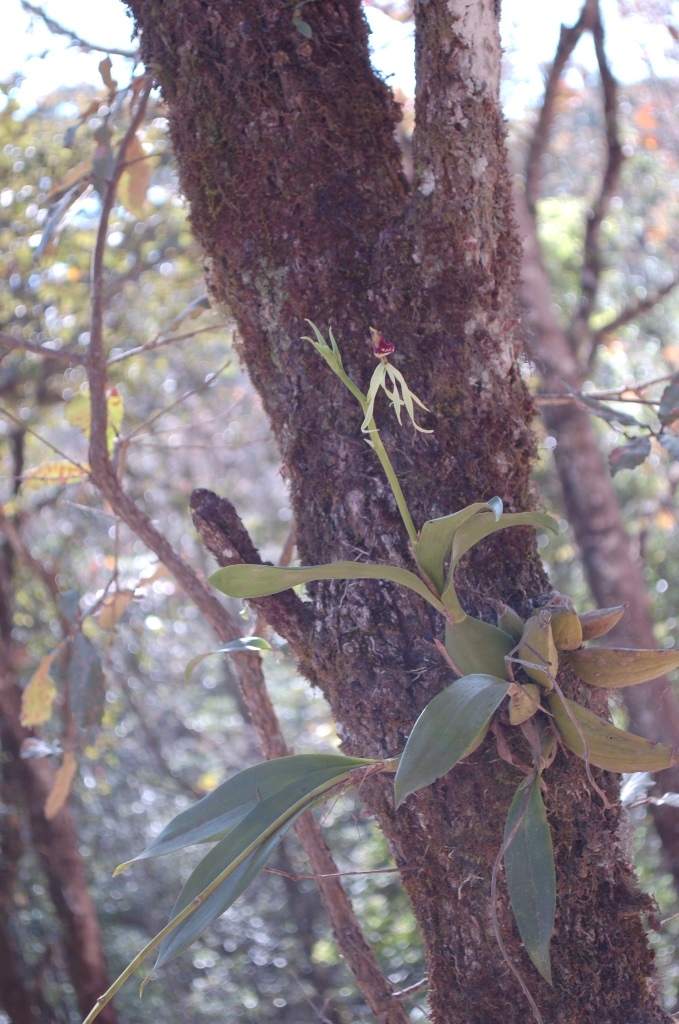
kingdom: Plantae
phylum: Tracheophyta
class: Liliopsida
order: Asparagales
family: Orchidaceae
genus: Prosthechea
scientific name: Prosthechea cochleata
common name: Clamshell orchid
